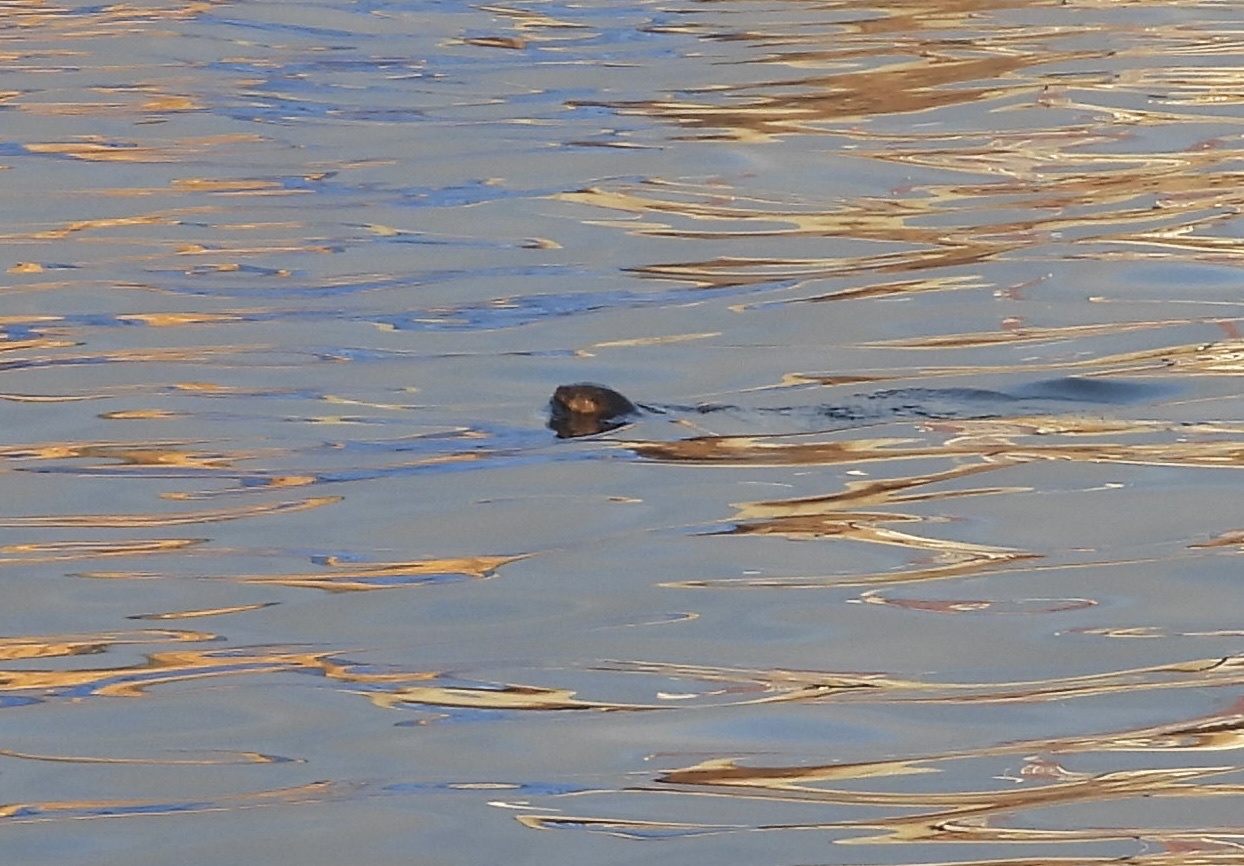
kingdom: Animalia
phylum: Chordata
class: Mammalia
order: Carnivora
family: Mustelidae
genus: Lontra
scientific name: Lontra felina
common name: Marine otter
